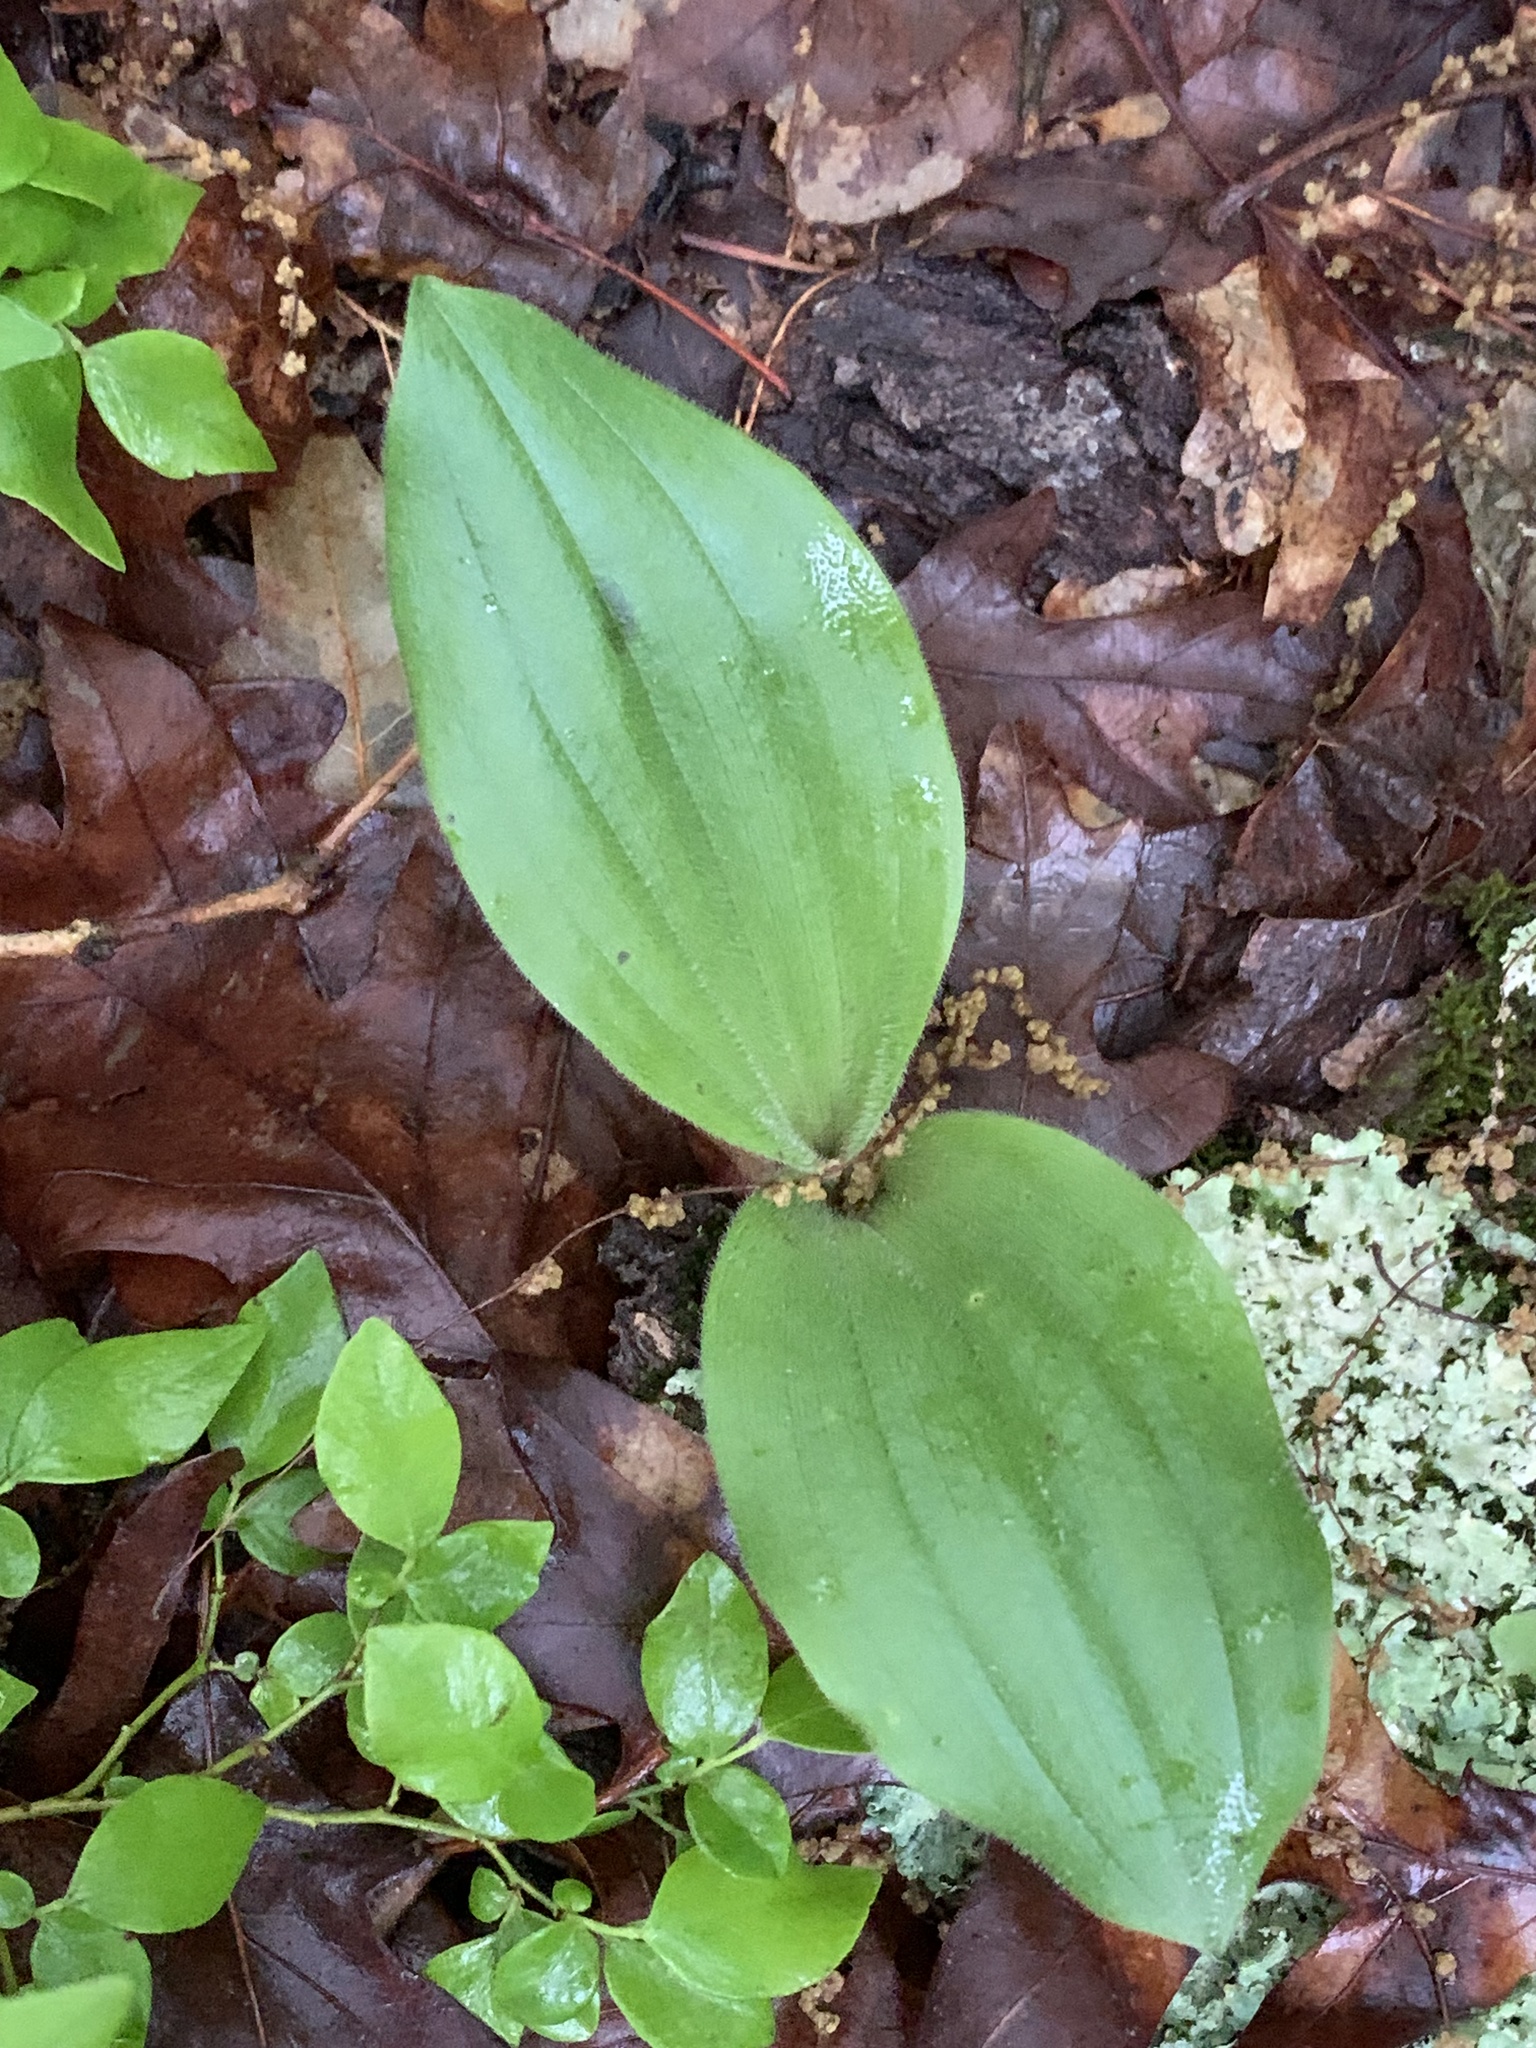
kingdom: Plantae
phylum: Tracheophyta
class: Liliopsida
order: Asparagales
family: Orchidaceae
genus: Cypripedium
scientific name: Cypripedium acaule
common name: Pink lady's-slipper
